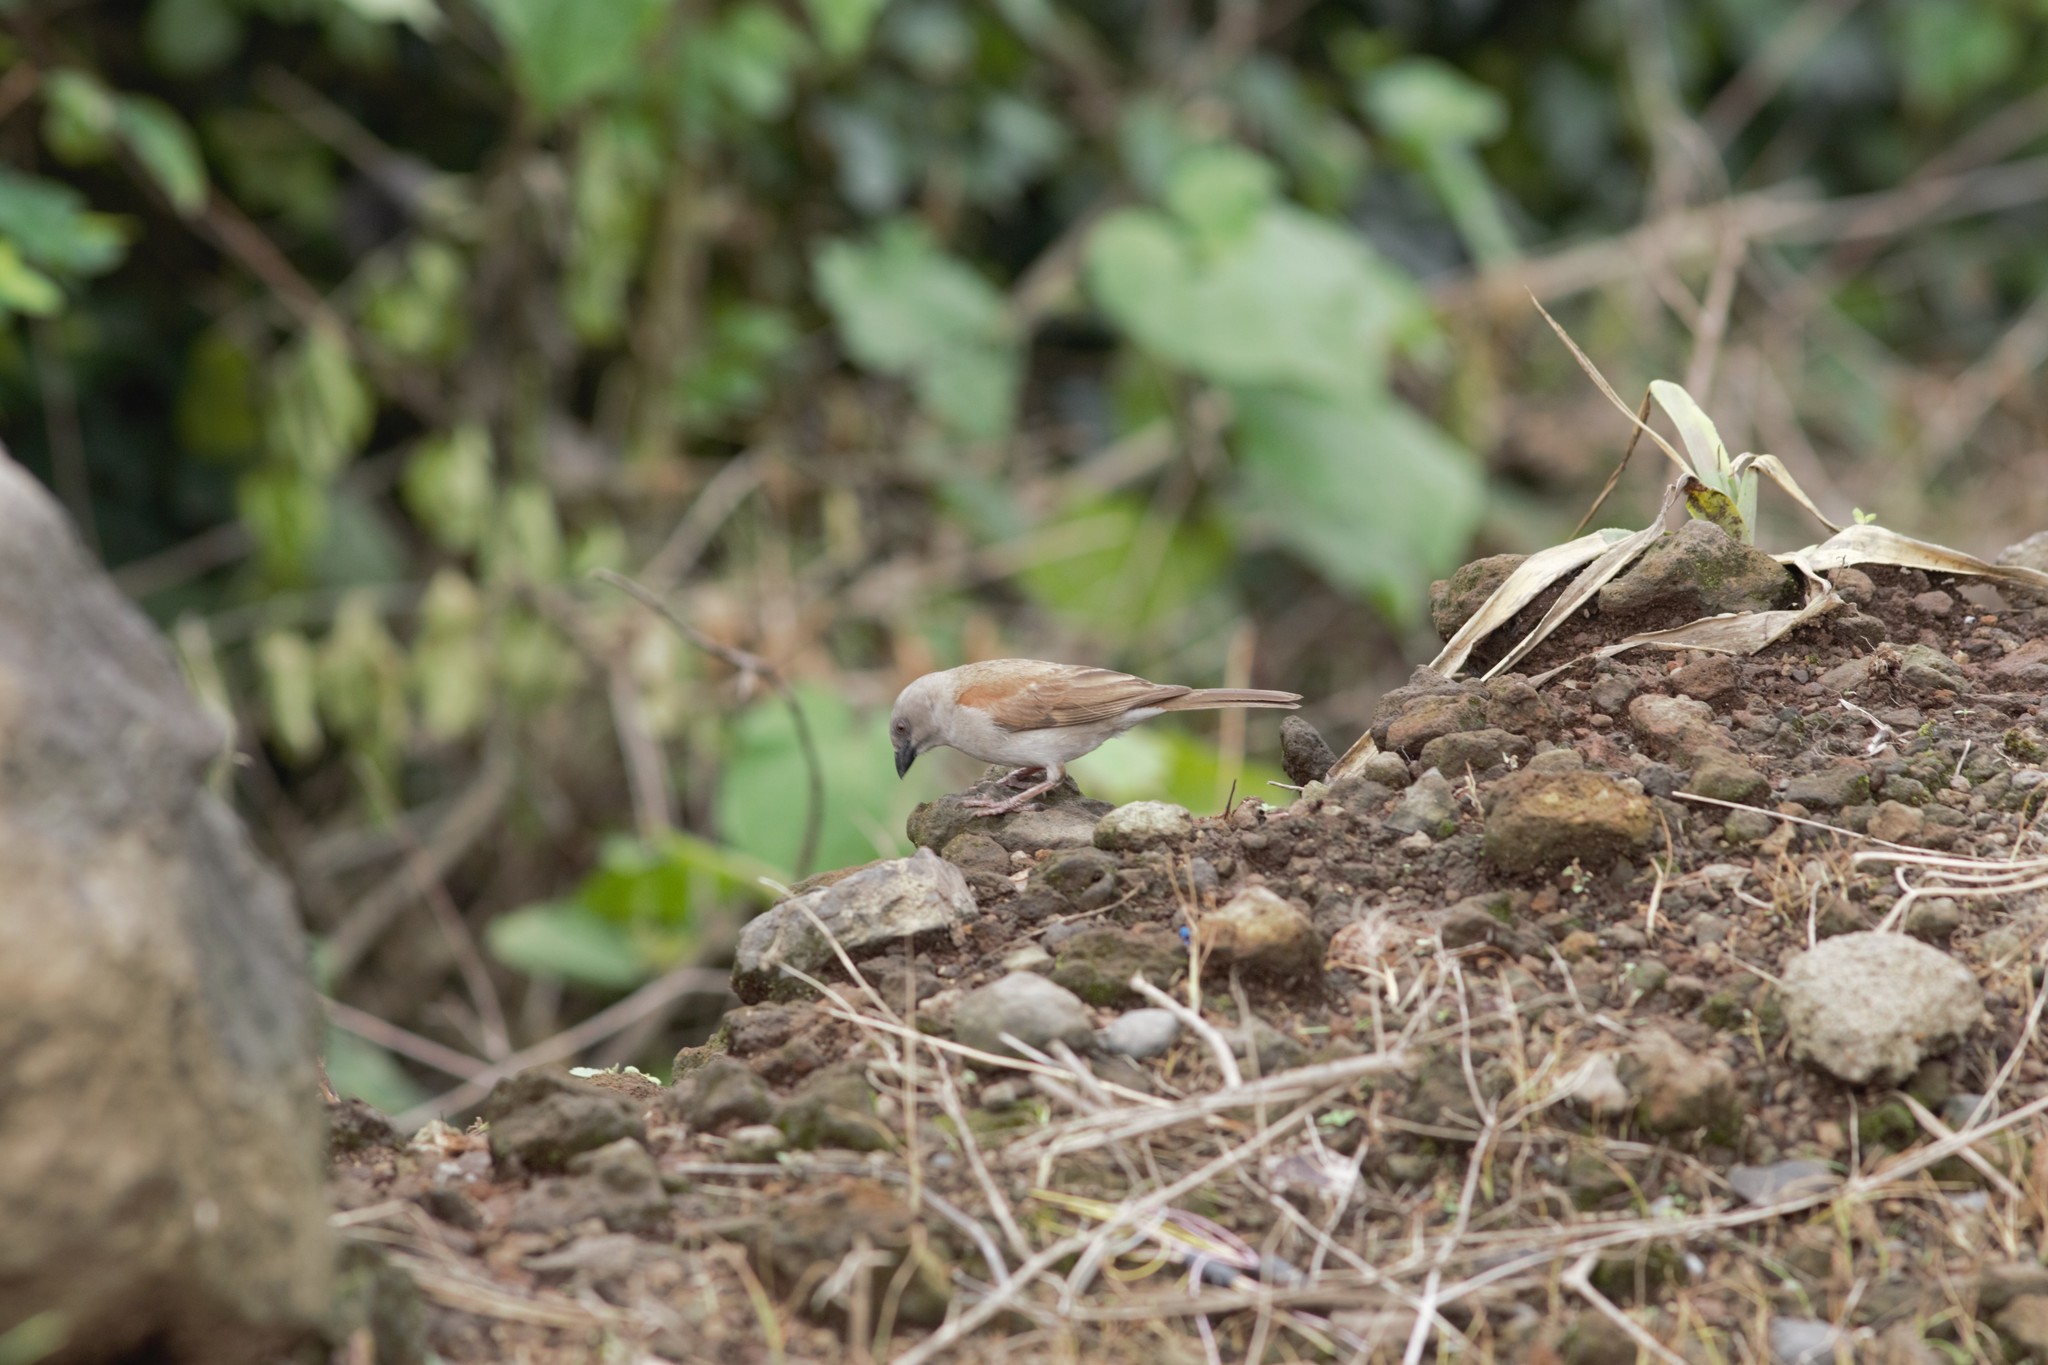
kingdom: Animalia
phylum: Chordata
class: Aves
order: Passeriformes
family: Passeridae
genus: Passer
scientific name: Passer griseus
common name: Northern grey-headed sparrow
